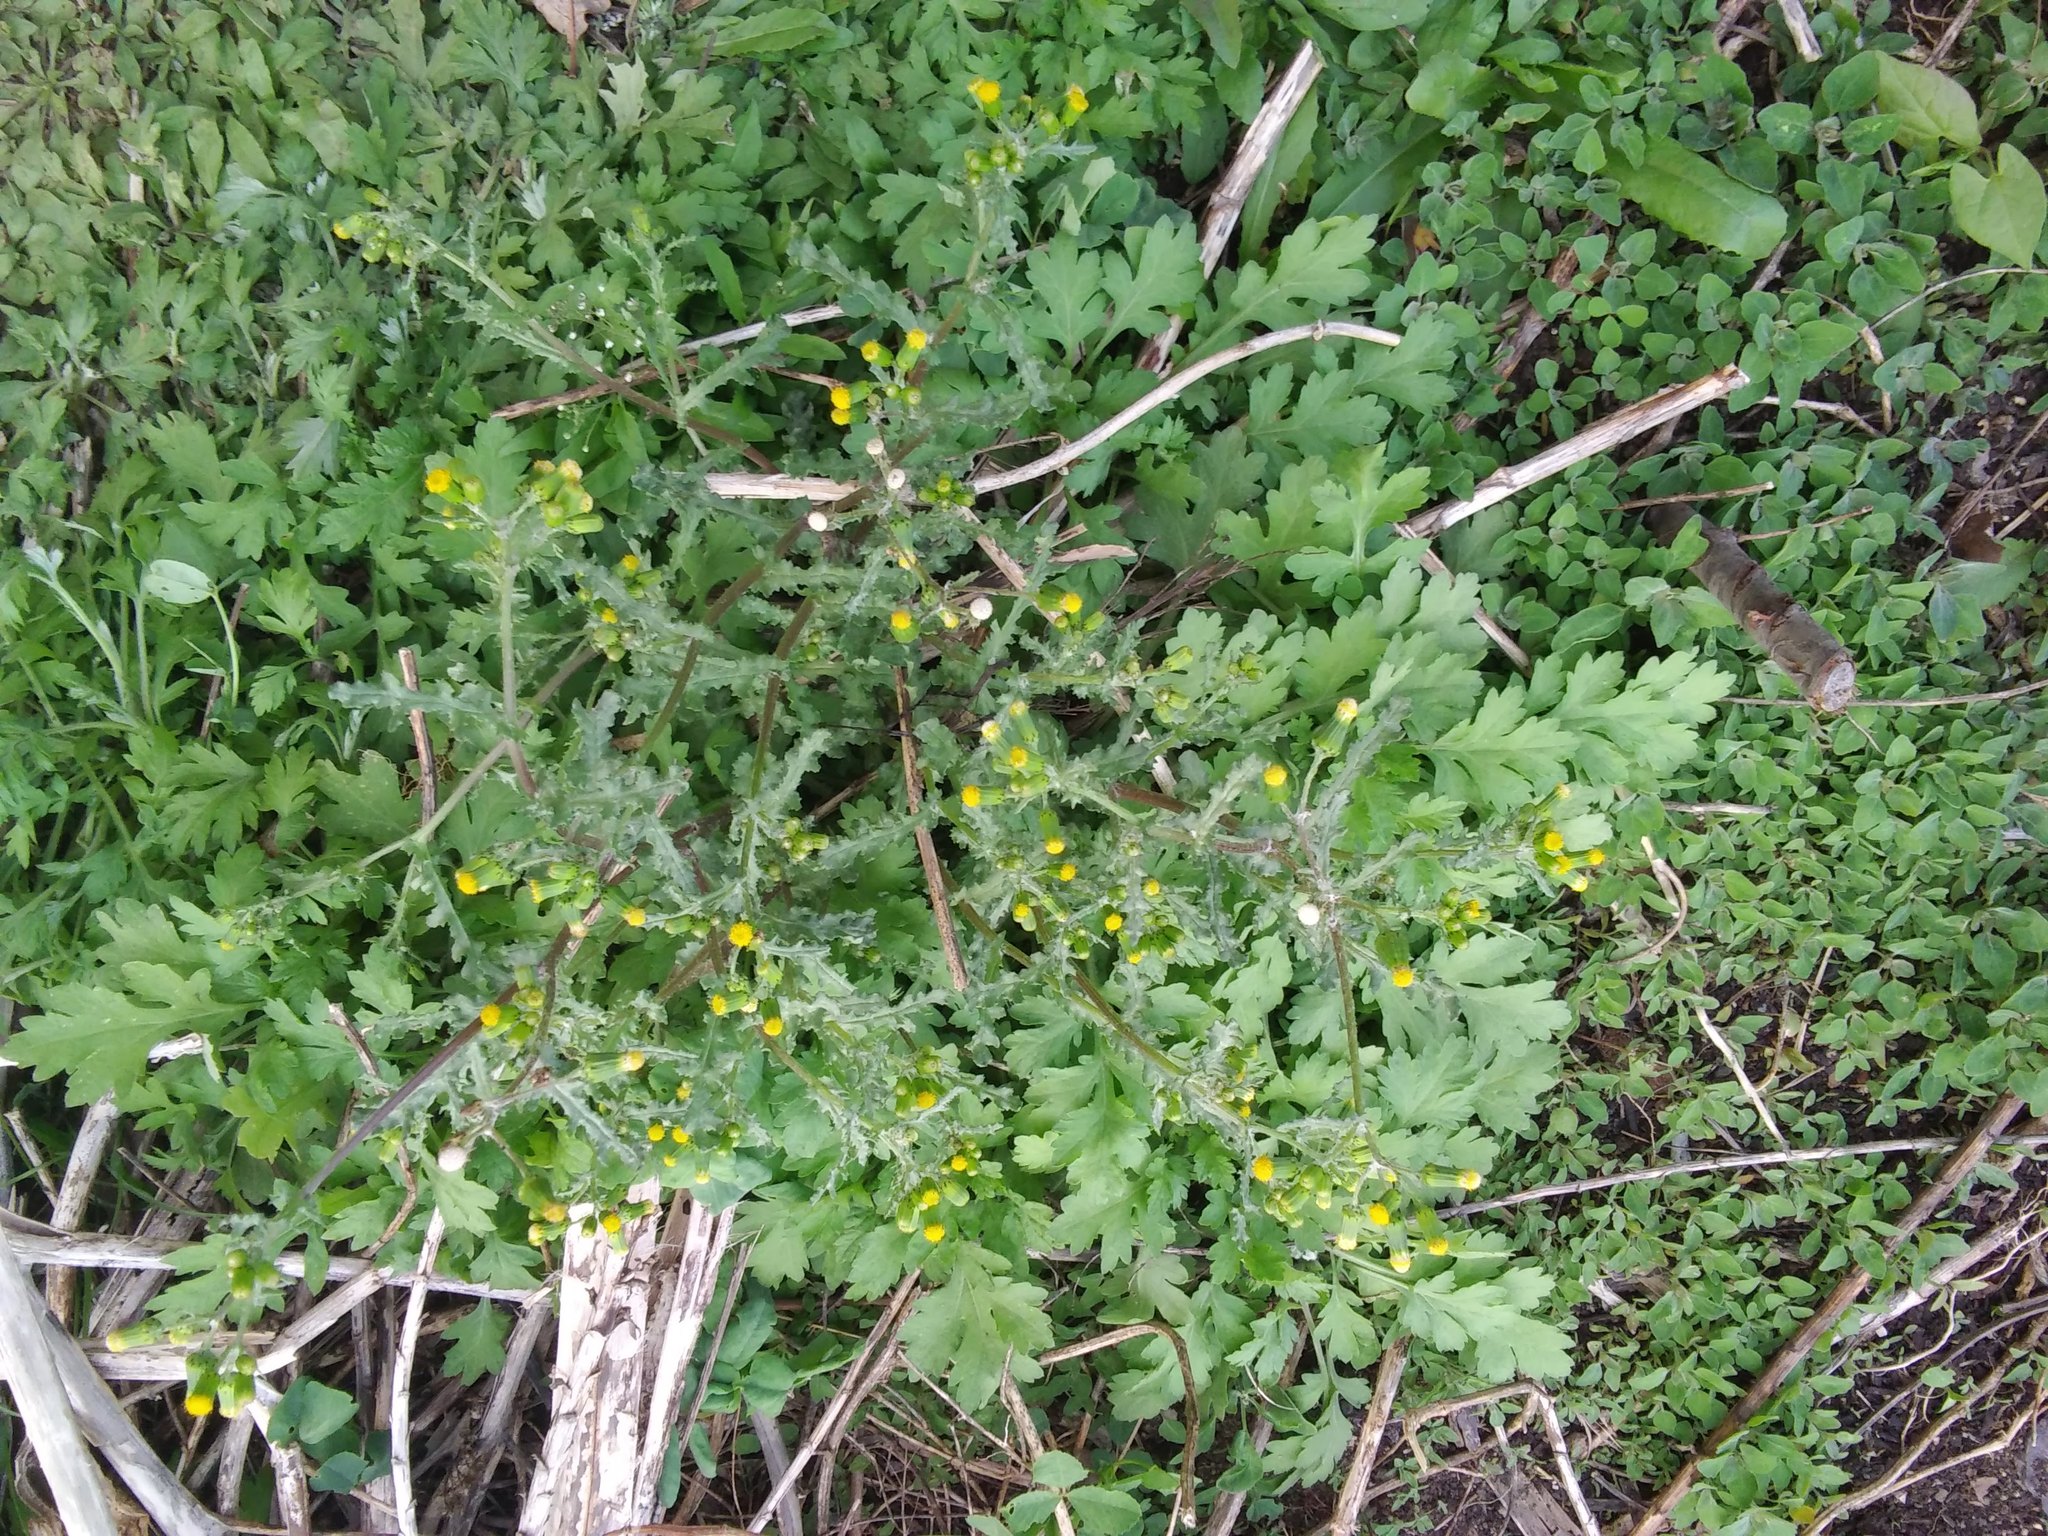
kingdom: Plantae
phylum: Tracheophyta
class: Magnoliopsida
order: Asterales
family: Asteraceae
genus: Senecio
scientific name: Senecio vulgaris
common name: Old-man-in-the-spring
